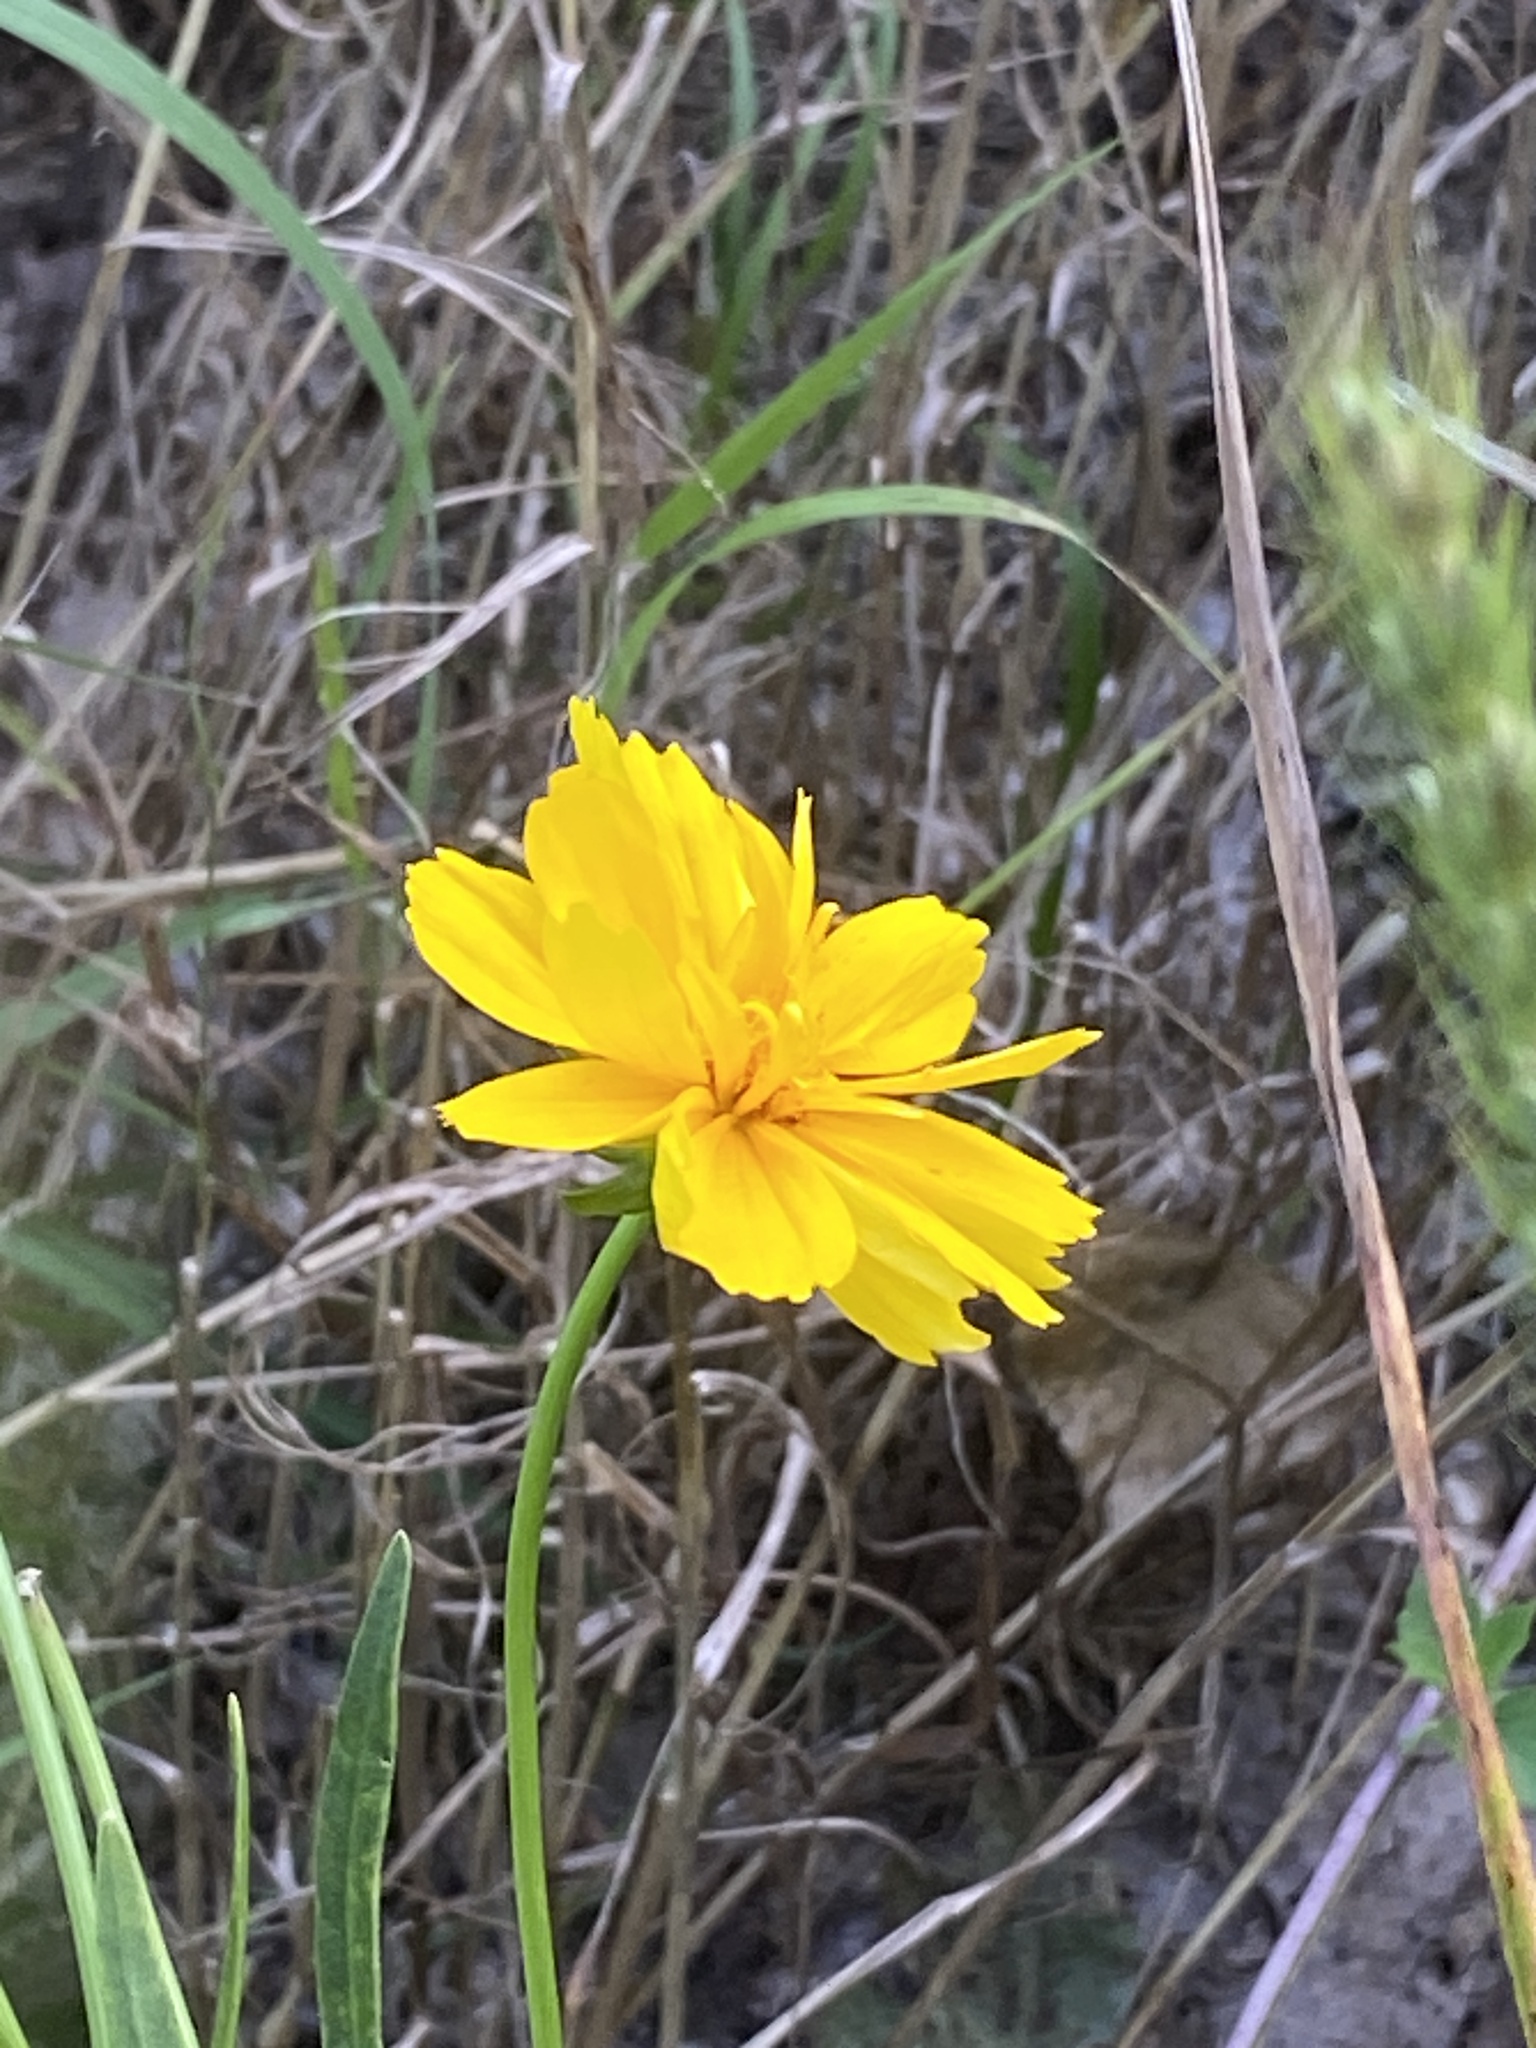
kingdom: Plantae
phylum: Tracheophyta
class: Magnoliopsida
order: Asterales
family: Asteraceae
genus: Coreopsis
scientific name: Coreopsis lanceolata
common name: Garden coreopsis
